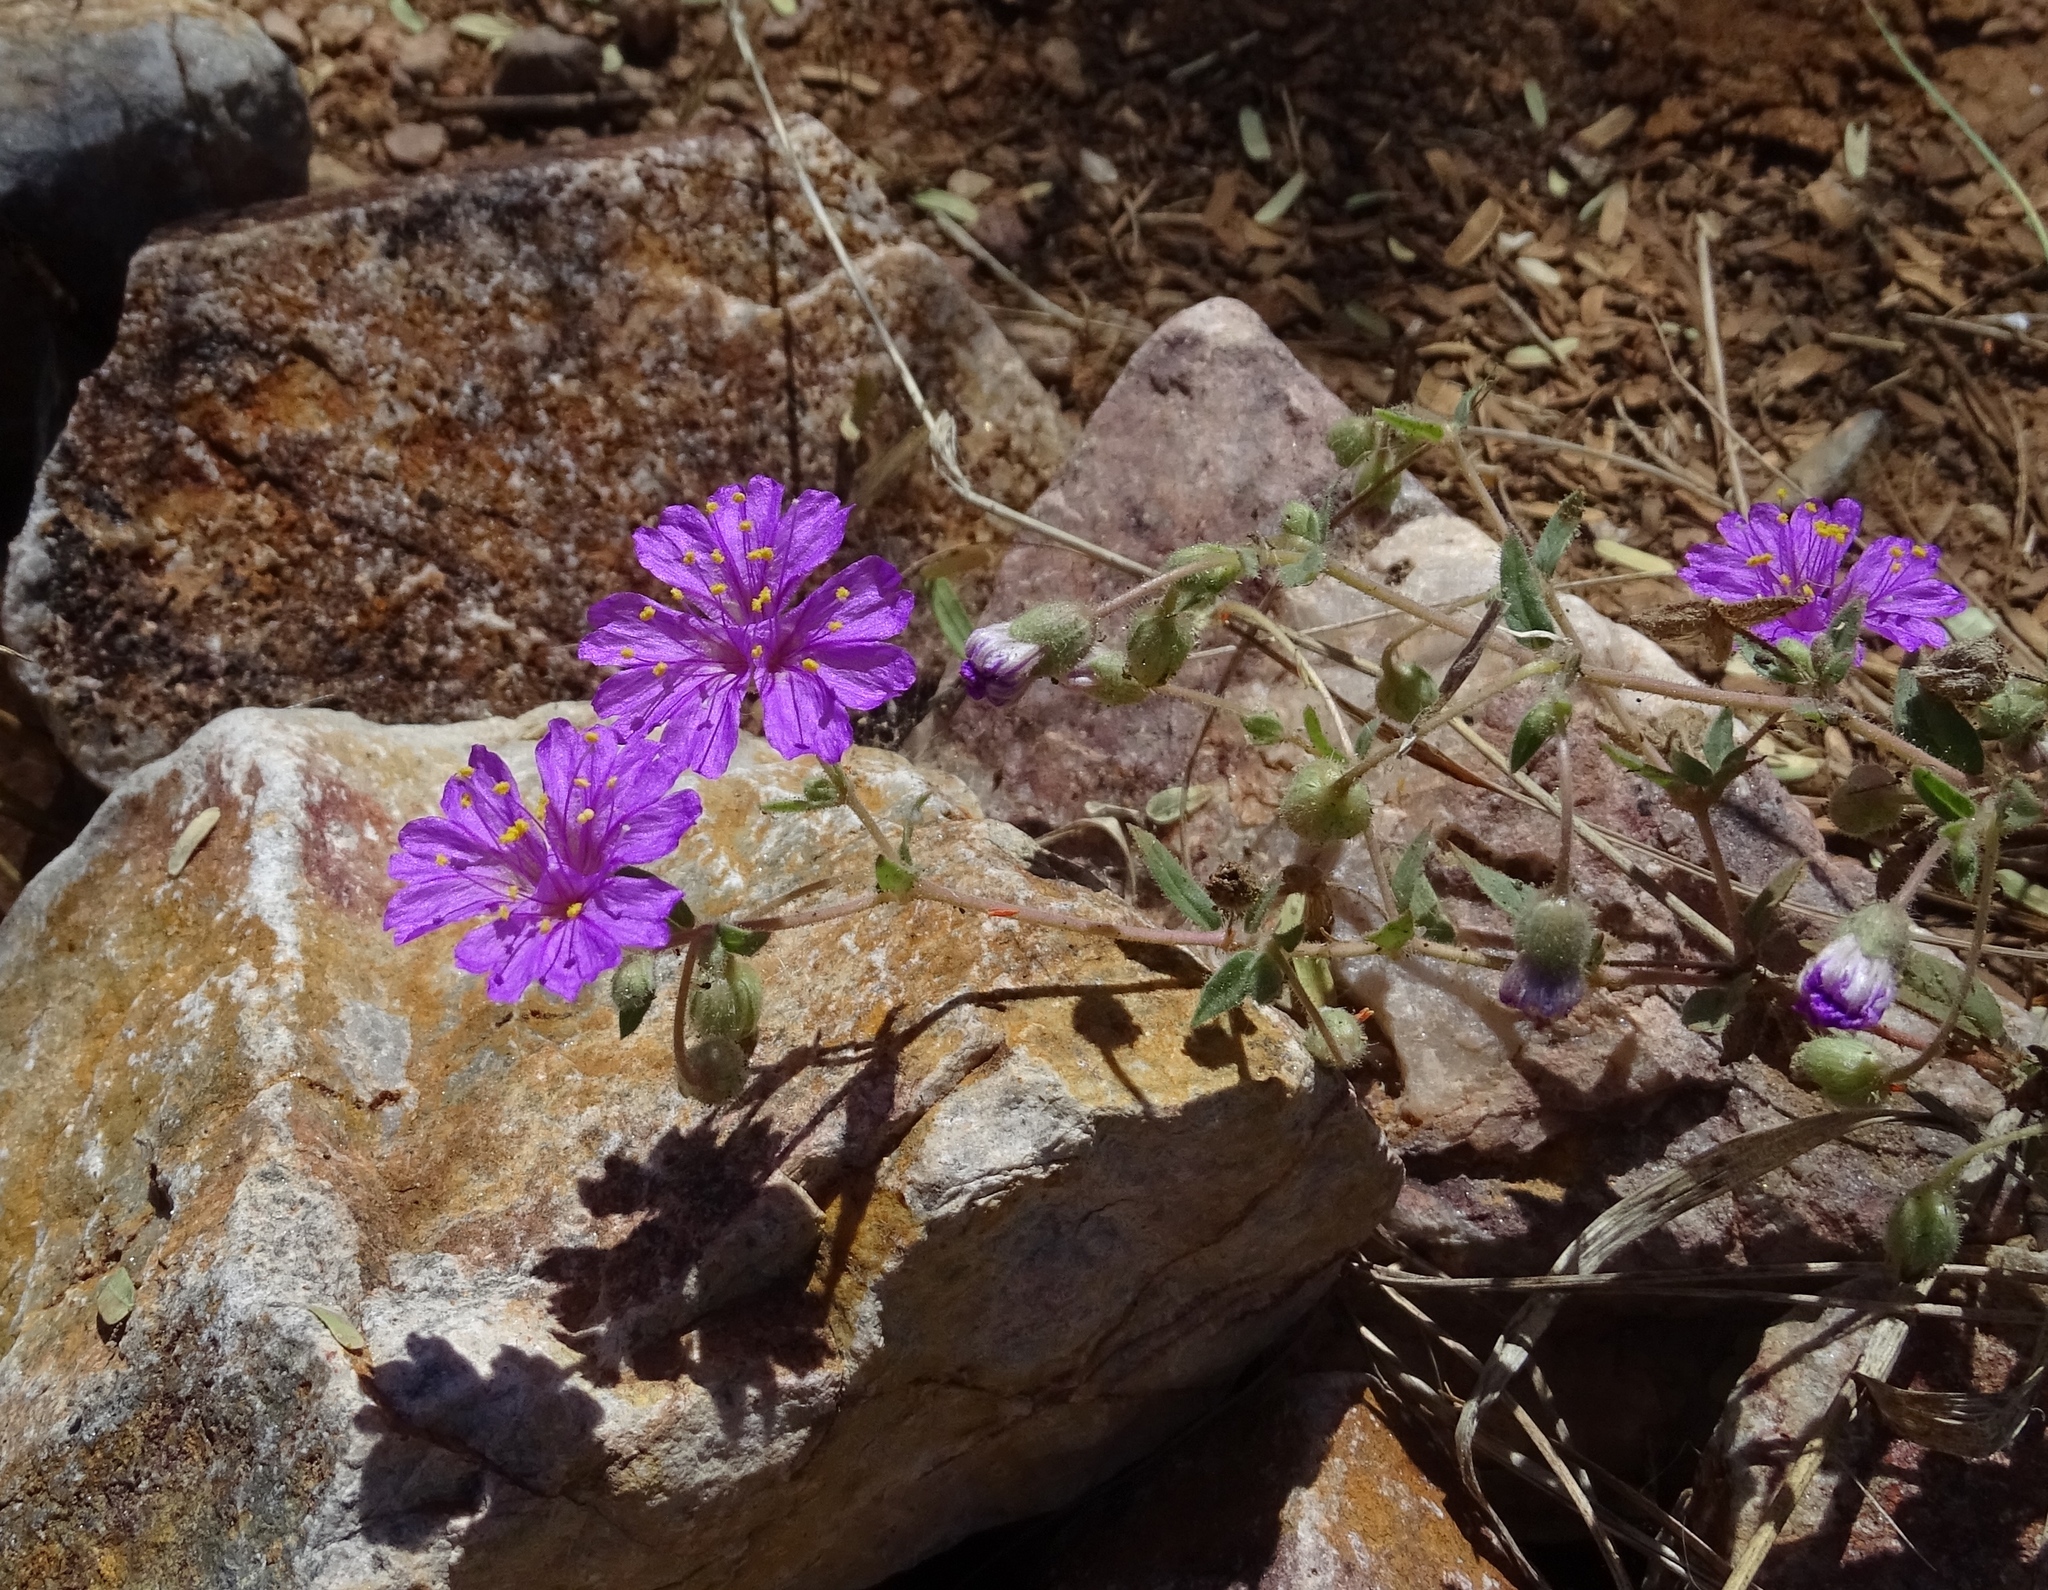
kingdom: Plantae
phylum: Tracheophyta
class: Magnoliopsida
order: Caryophyllales
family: Nyctaginaceae
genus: Allionia
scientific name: Allionia incarnata
